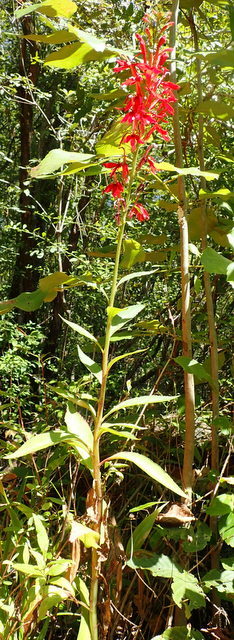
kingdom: Plantae
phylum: Tracheophyta
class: Magnoliopsida
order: Asterales
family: Campanulaceae
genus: Lobelia
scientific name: Lobelia cardinalis
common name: Cardinal flower
